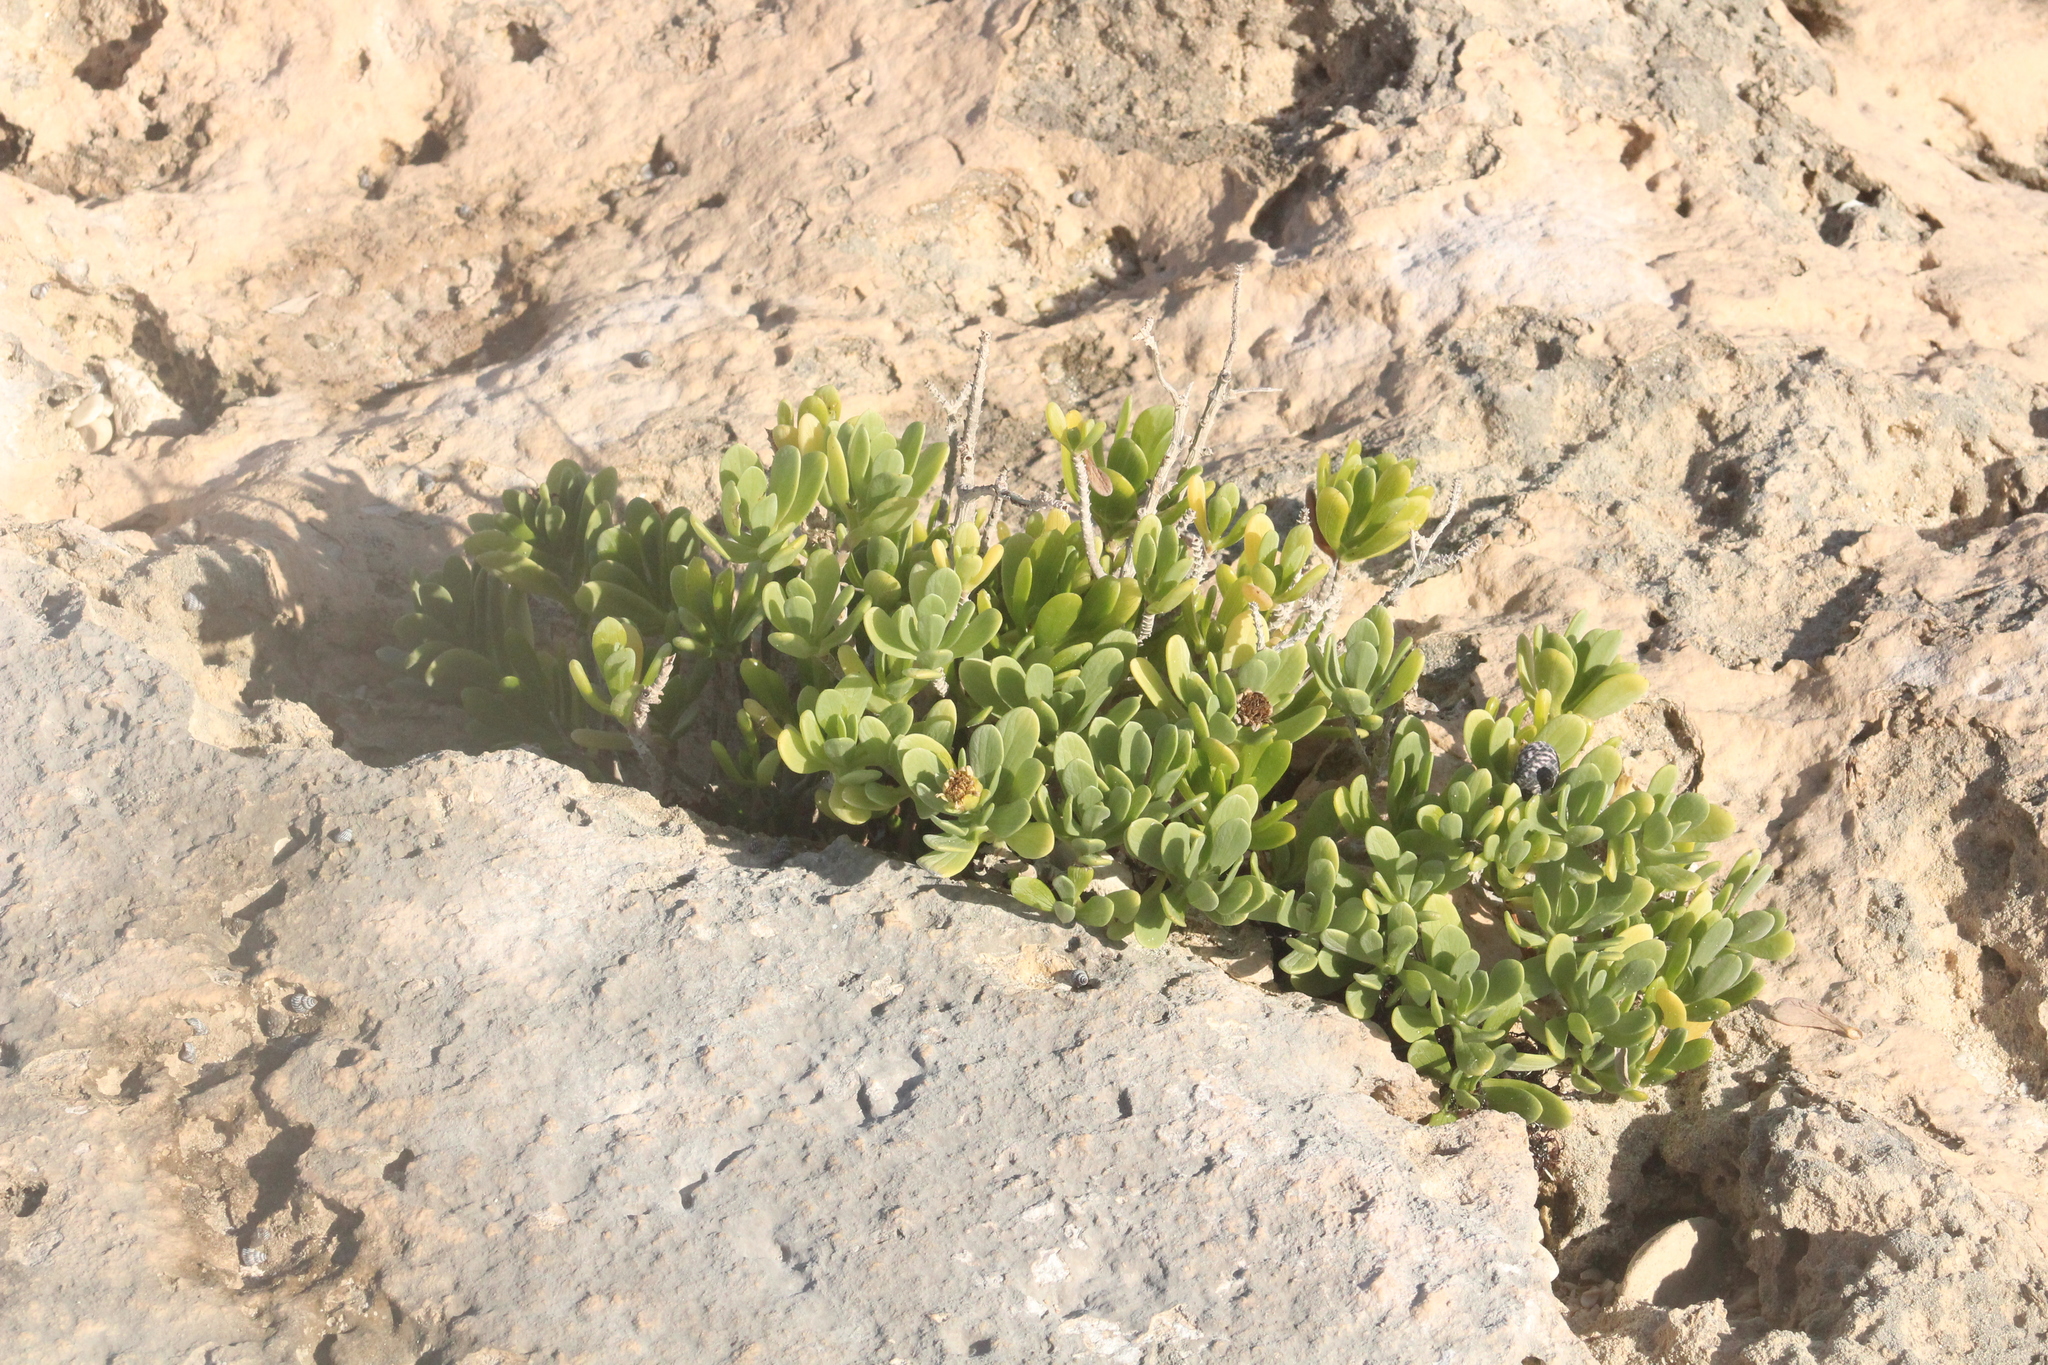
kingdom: Plantae
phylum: Tracheophyta
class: Magnoliopsida
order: Asterales
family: Asteraceae
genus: Borrichia
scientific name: Borrichia arborescens
